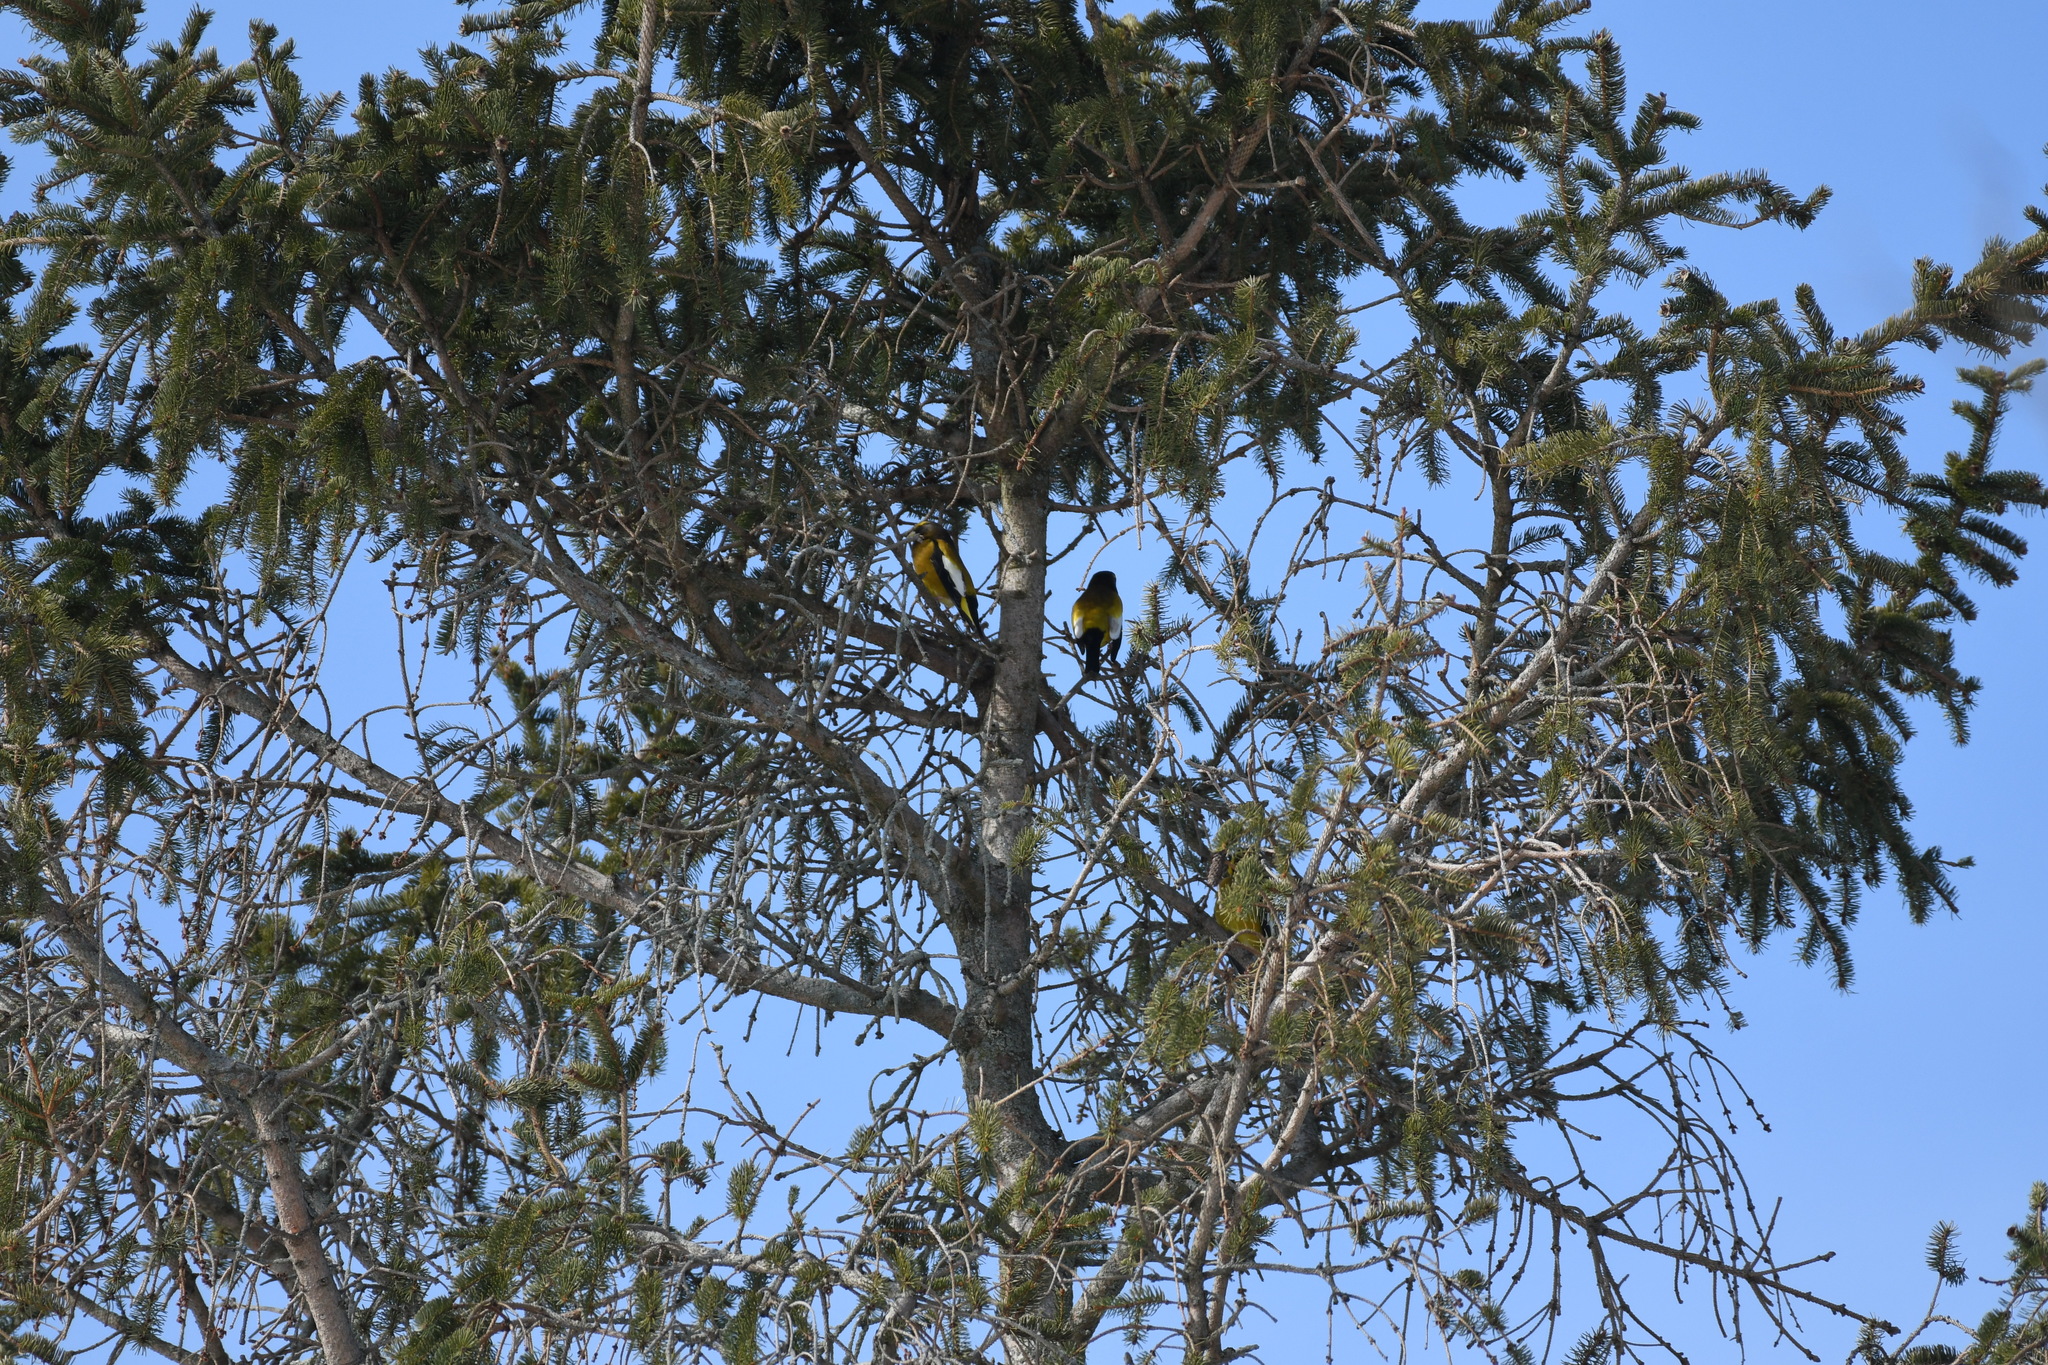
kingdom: Animalia
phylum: Chordata
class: Aves
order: Passeriformes
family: Fringillidae
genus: Hesperiphona
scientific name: Hesperiphona vespertina
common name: Evening grosbeak
